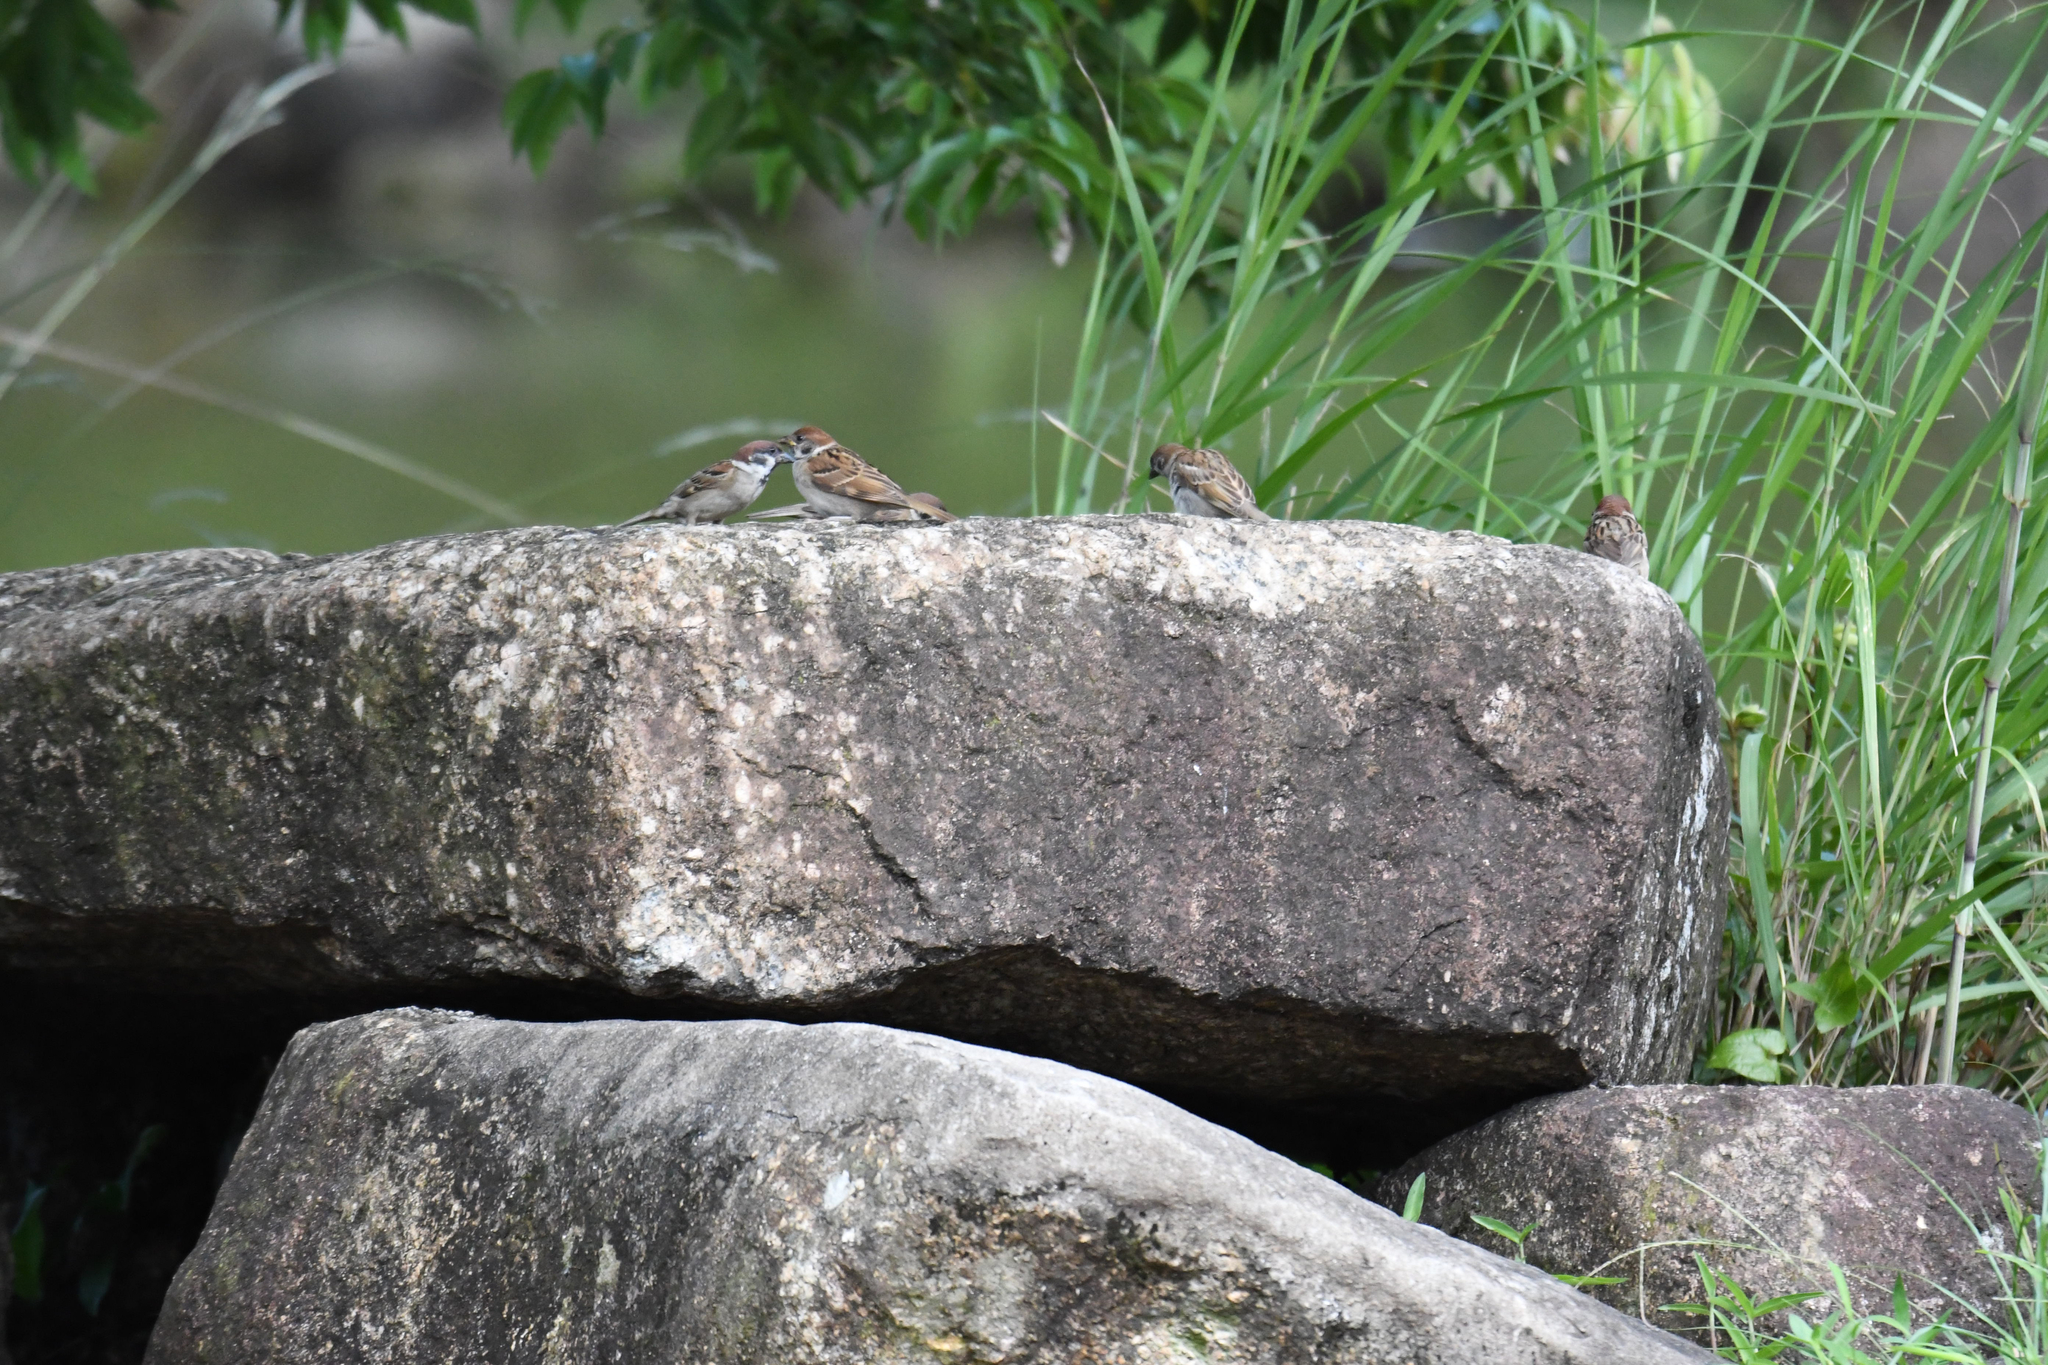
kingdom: Animalia
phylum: Chordata
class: Aves
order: Passeriformes
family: Passeridae
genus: Passer
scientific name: Passer montanus
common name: Eurasian tree sparrow
